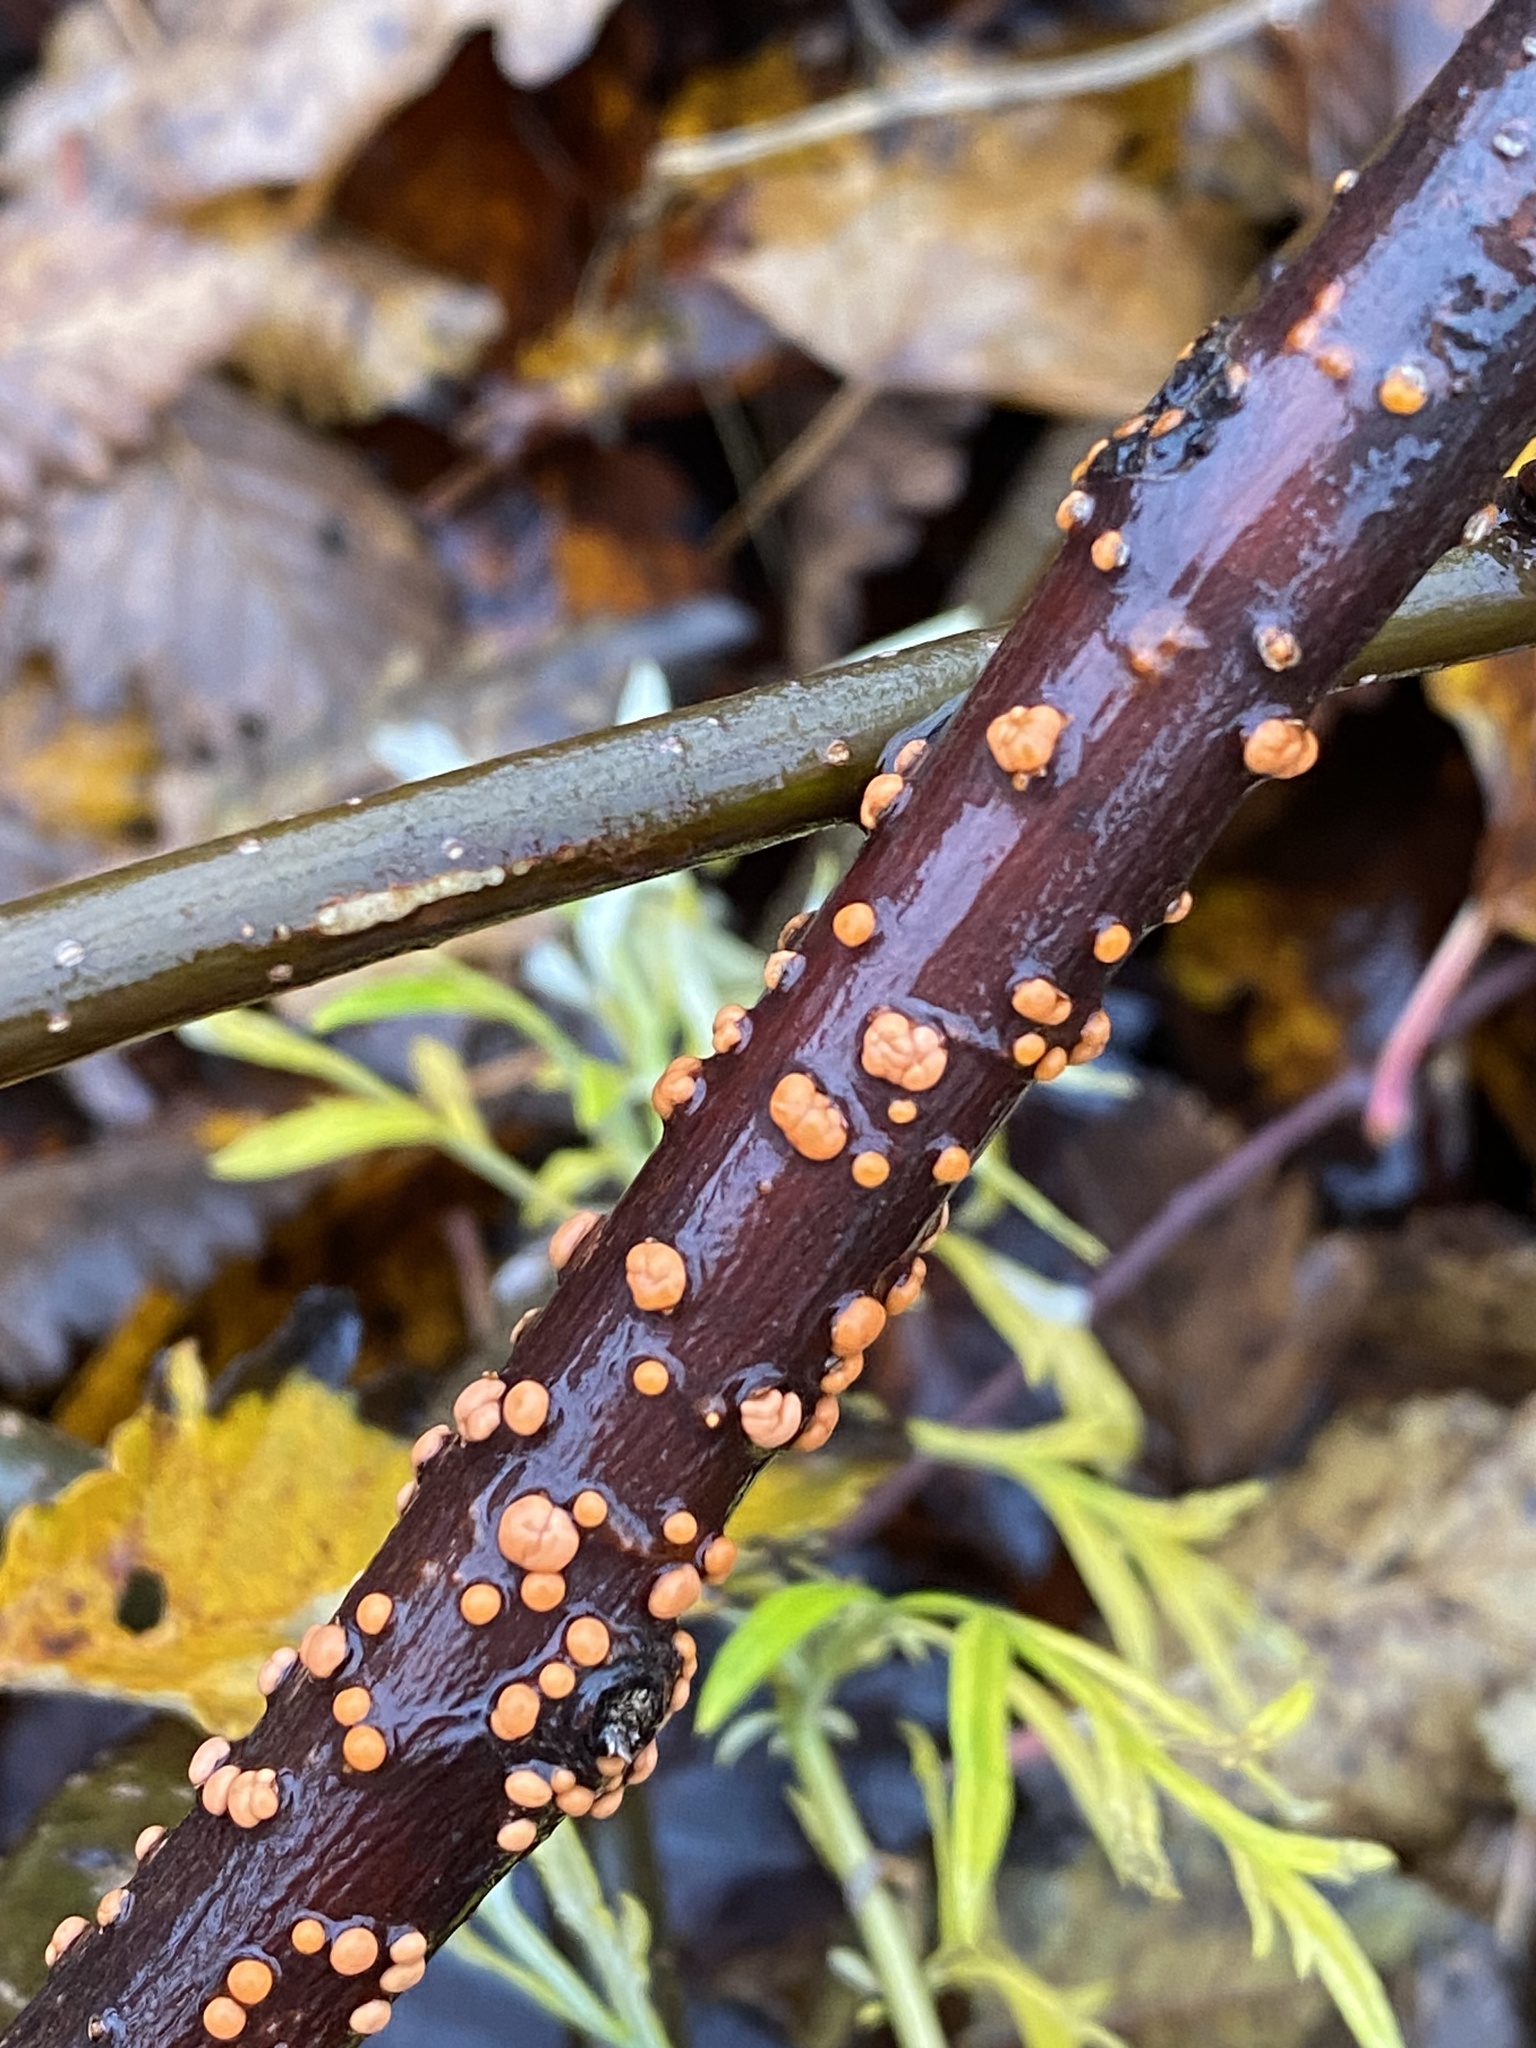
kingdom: Fungi
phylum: Ascomycota
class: Sordariomycetes
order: Hypocreales
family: Nectriaceae
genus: Nectria
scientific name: Nectria cinnabarina
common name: Coral spot
